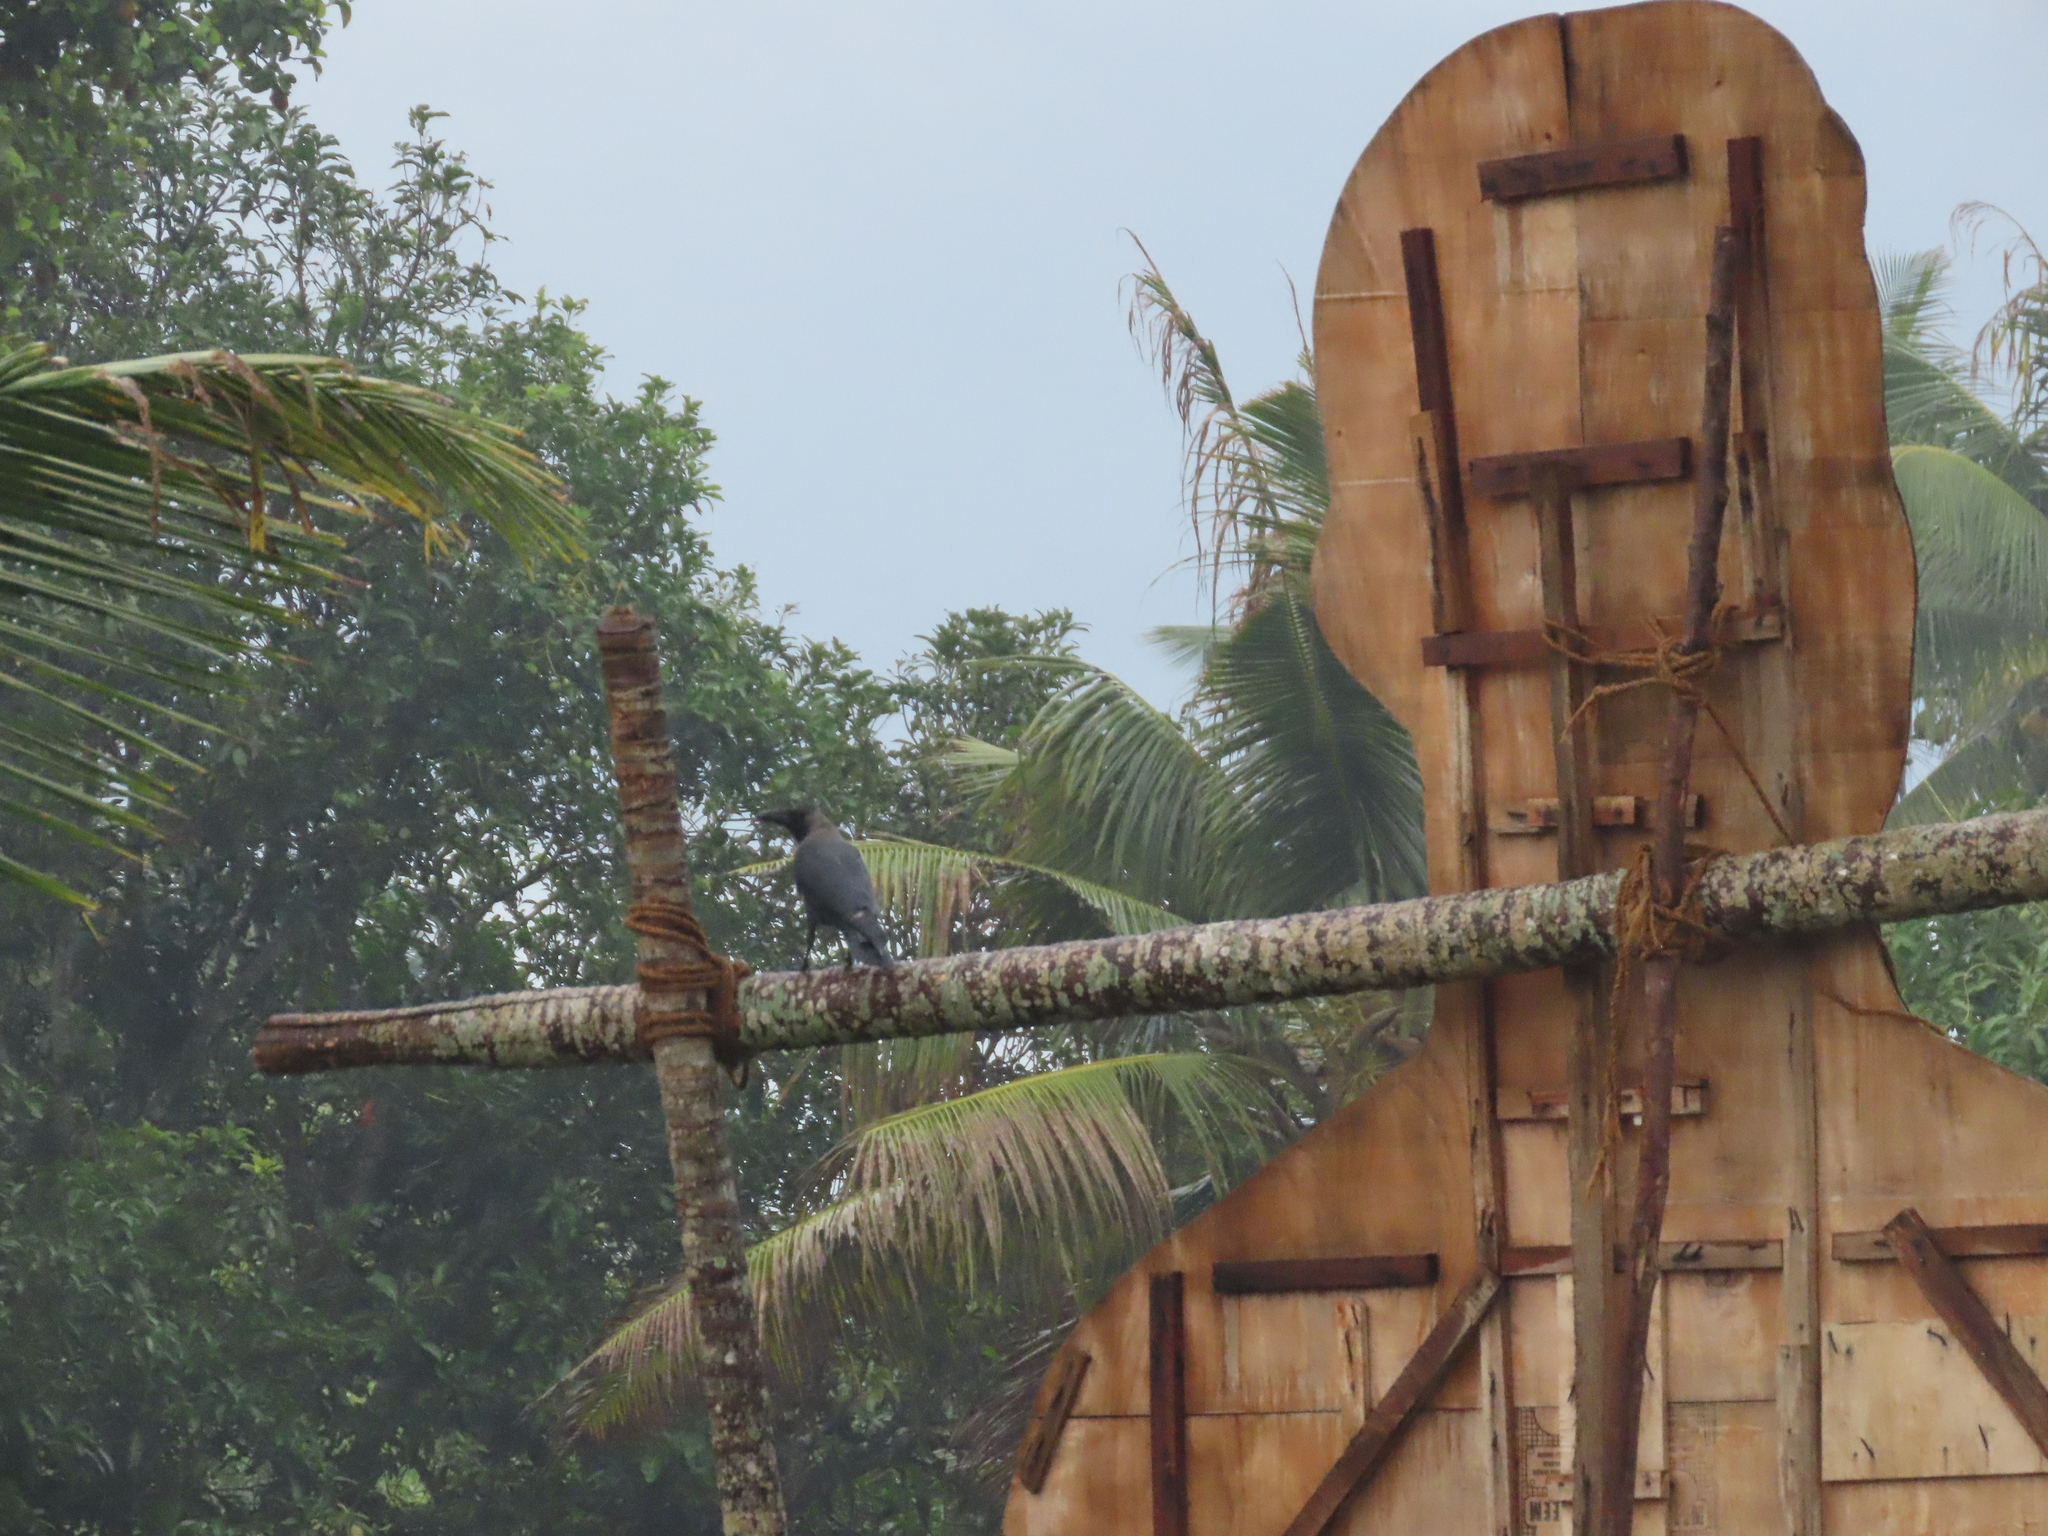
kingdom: Animalia
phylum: Chordata
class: Aves
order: Passeriformes
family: Corvidae
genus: Corvus
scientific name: Corvus splendens
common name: House crow
